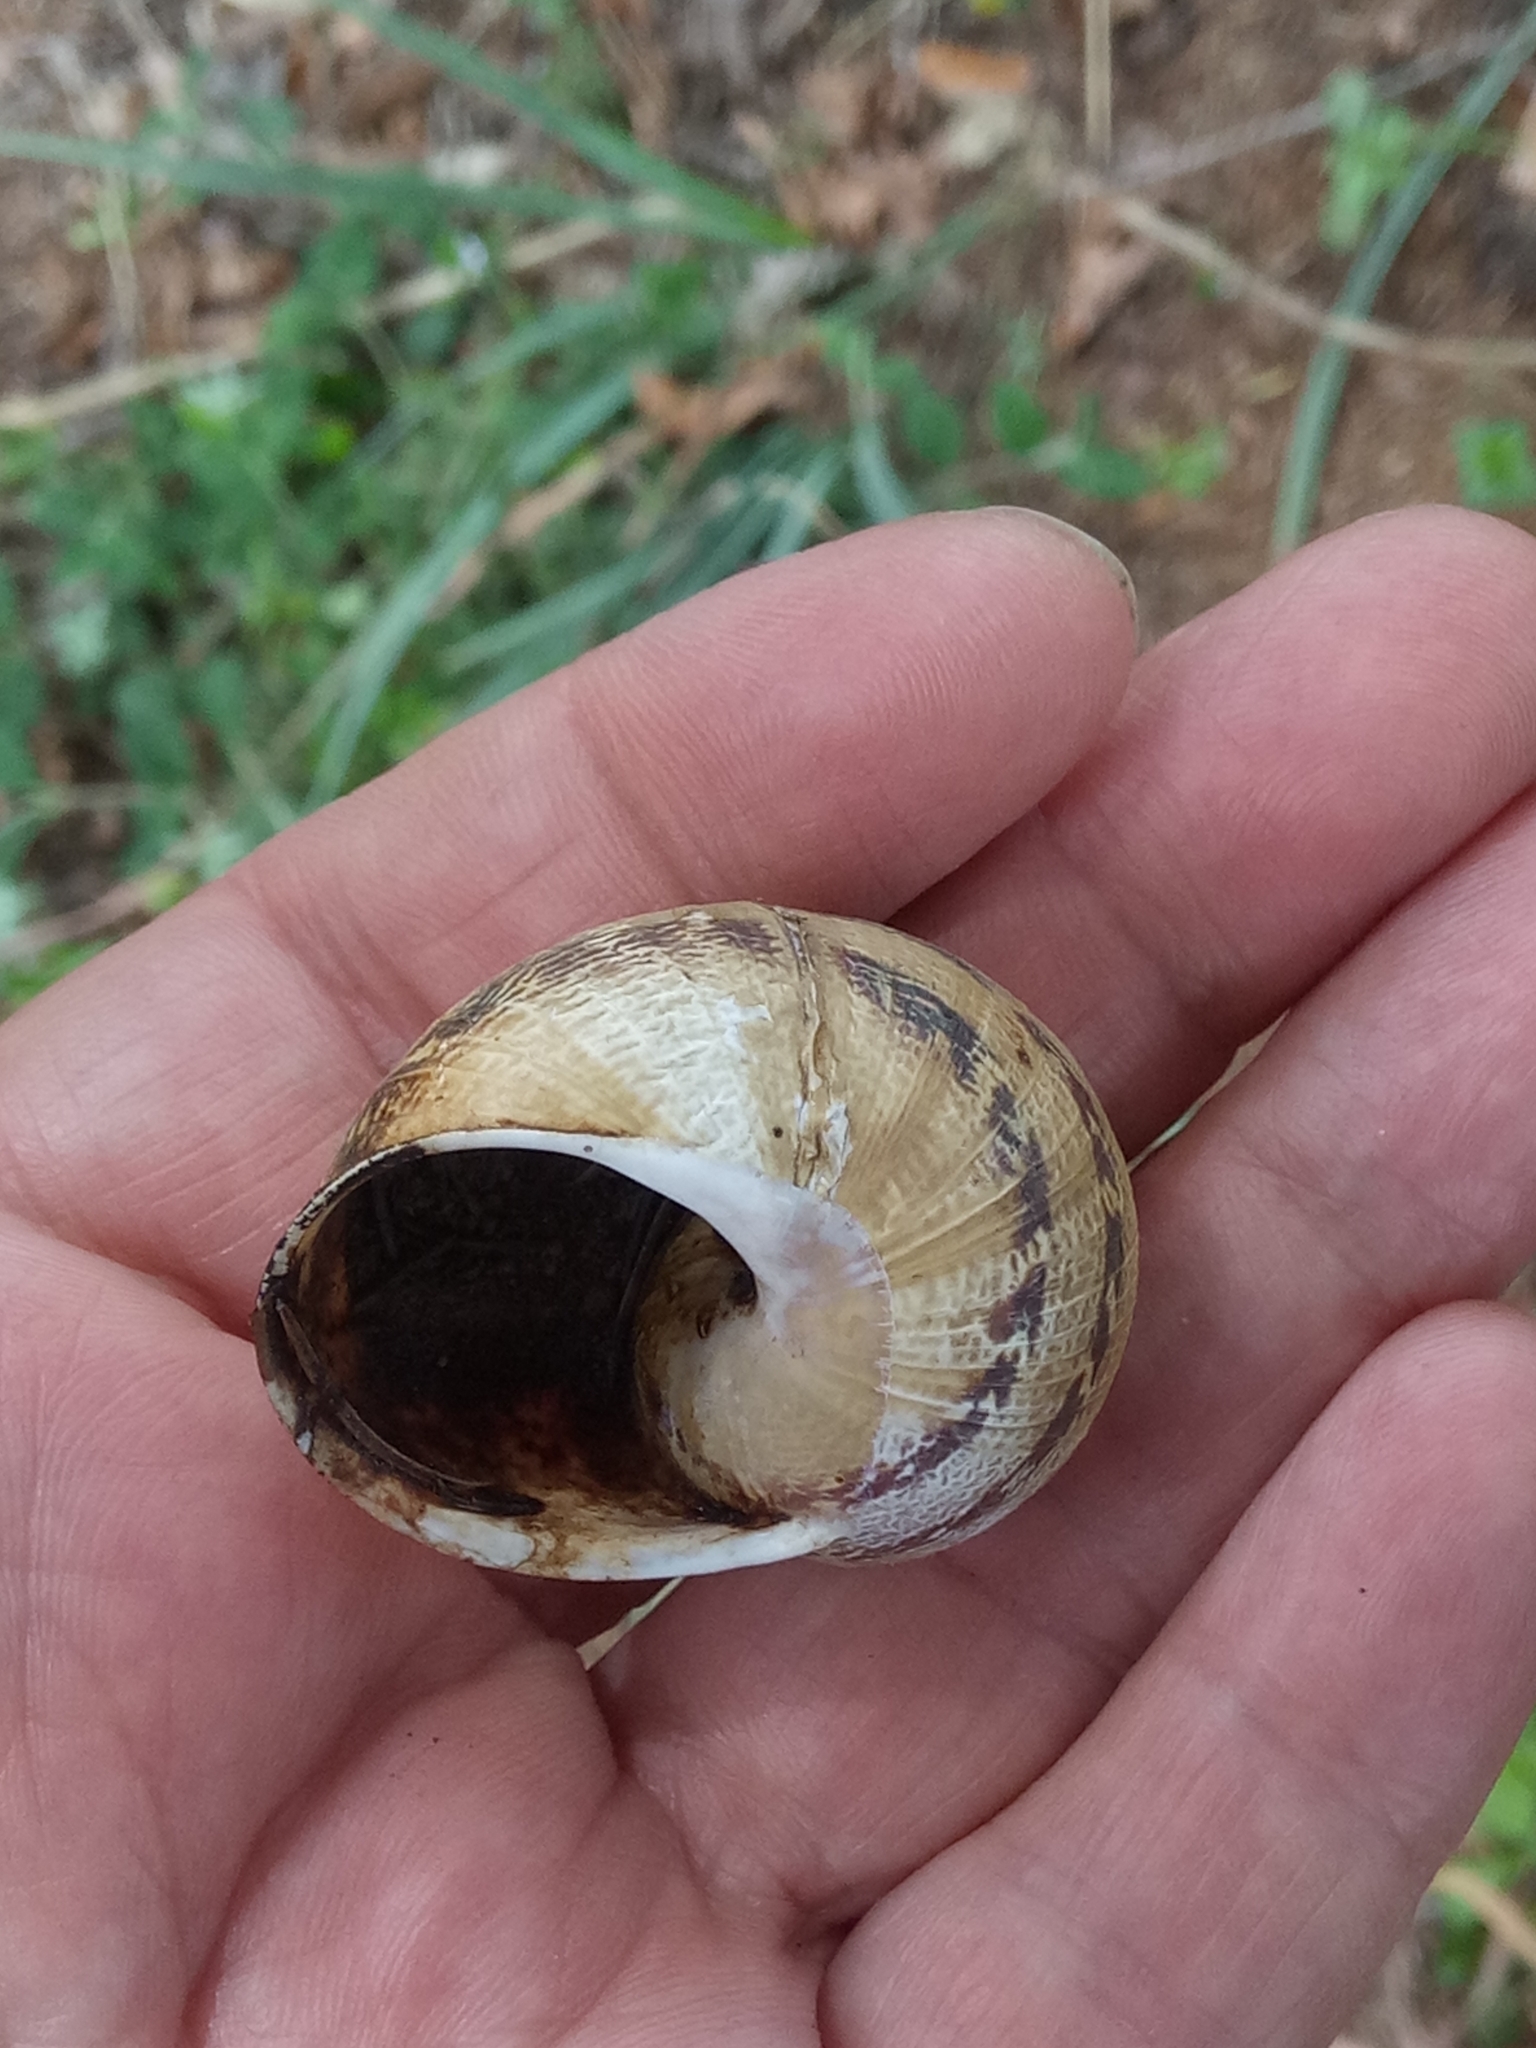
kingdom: Animalia
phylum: Mollusca
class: Gastropoda
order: Stylommatophora
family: Helicidae
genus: Cornu
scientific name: Cornu aspersum
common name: Brown garden snail
